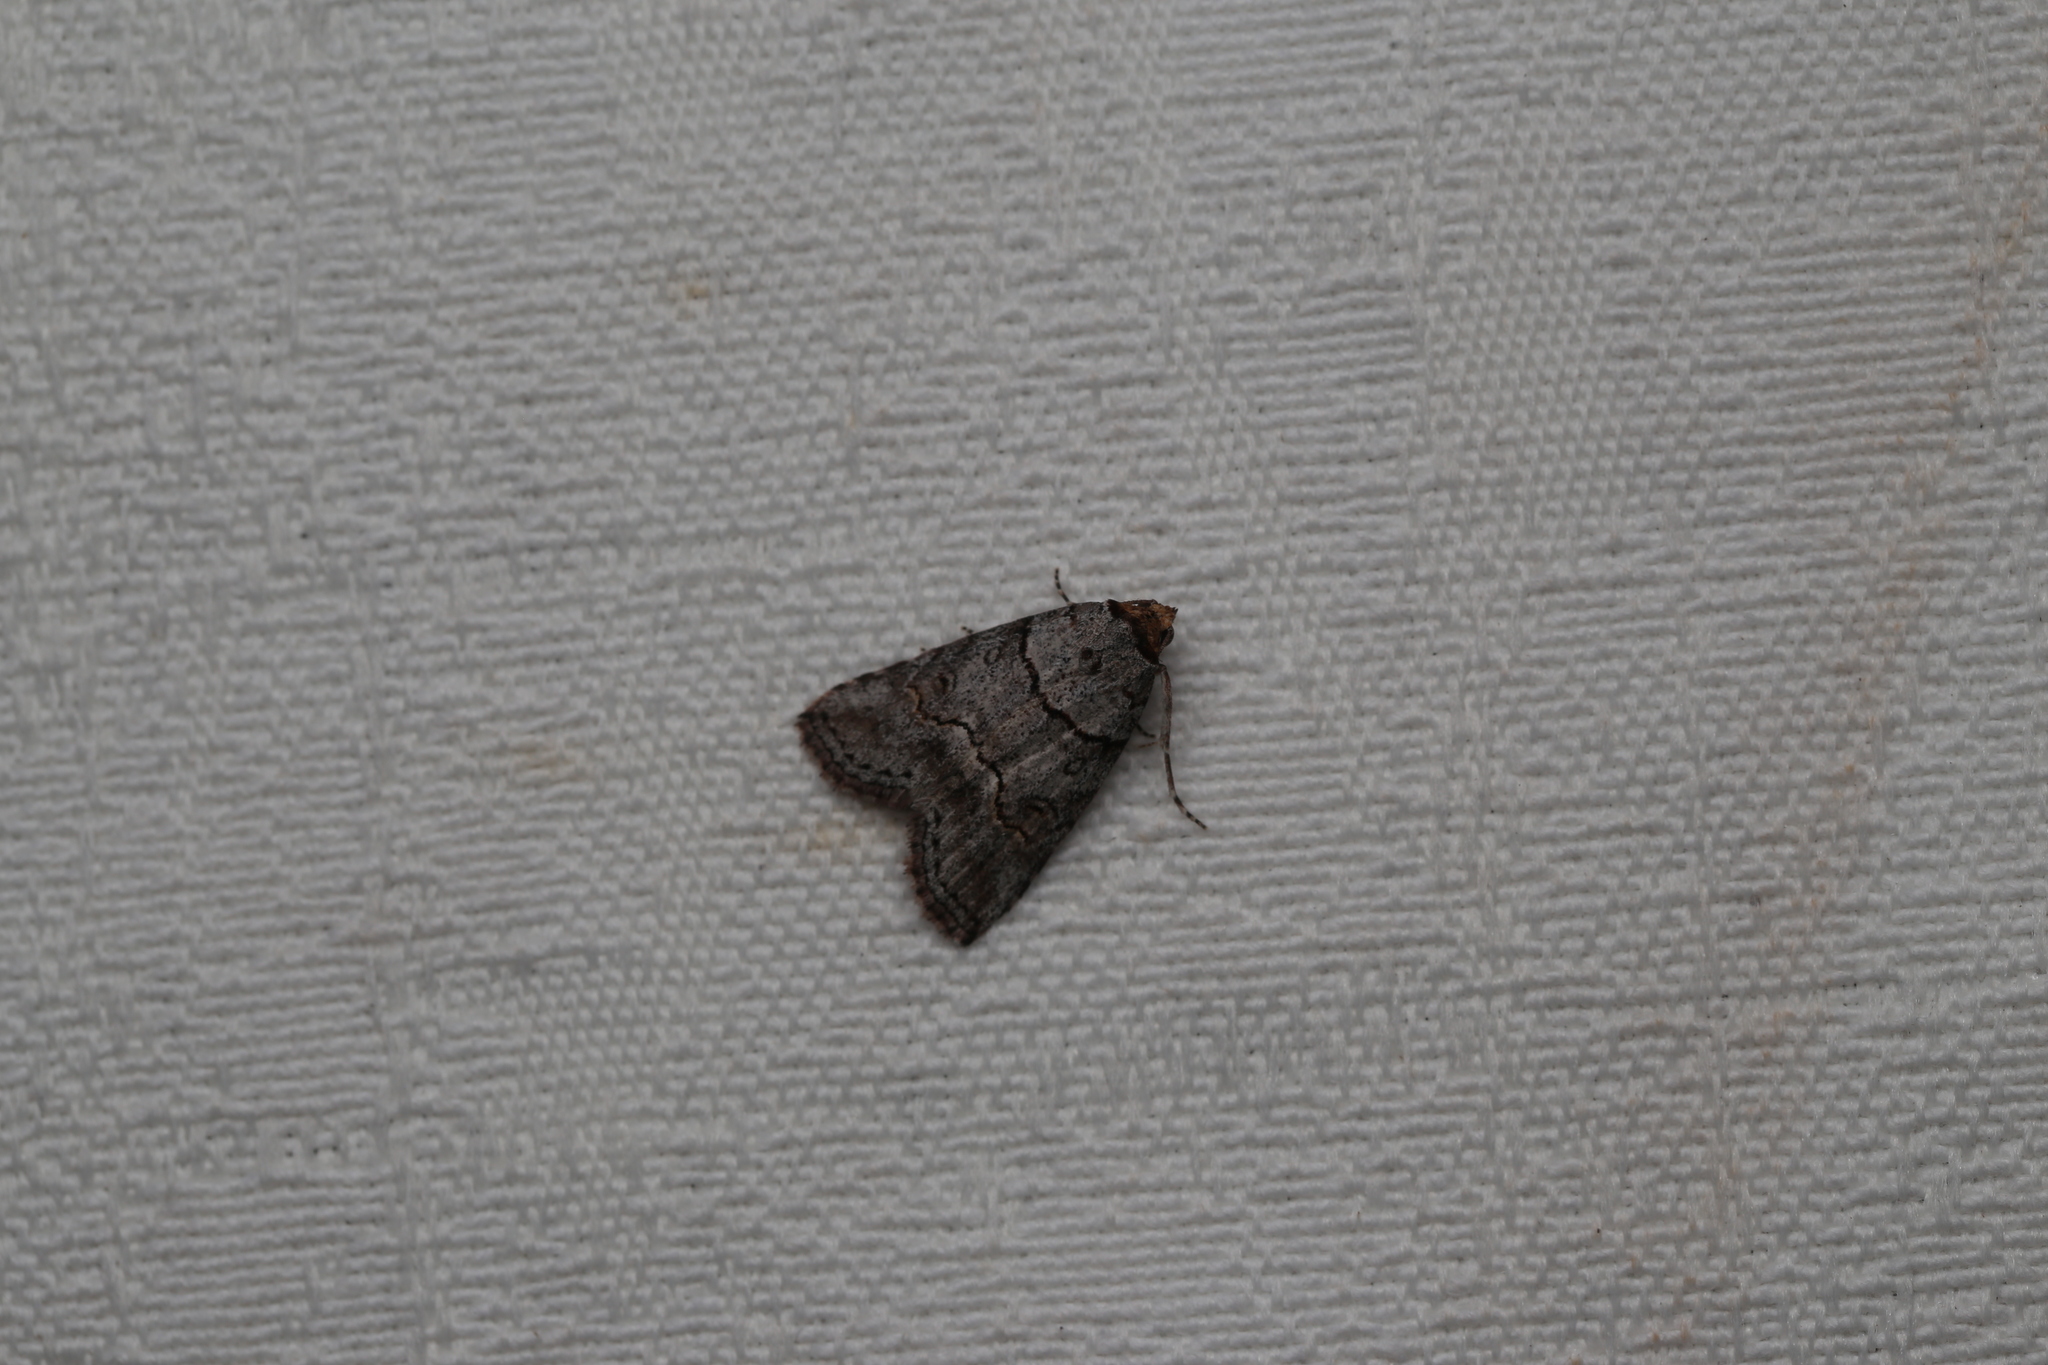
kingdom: Animalia
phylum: Arthropoda
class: Insecta
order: Lepidoptera
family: Nolidae
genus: Calathusa
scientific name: Calathusa hypotherma
